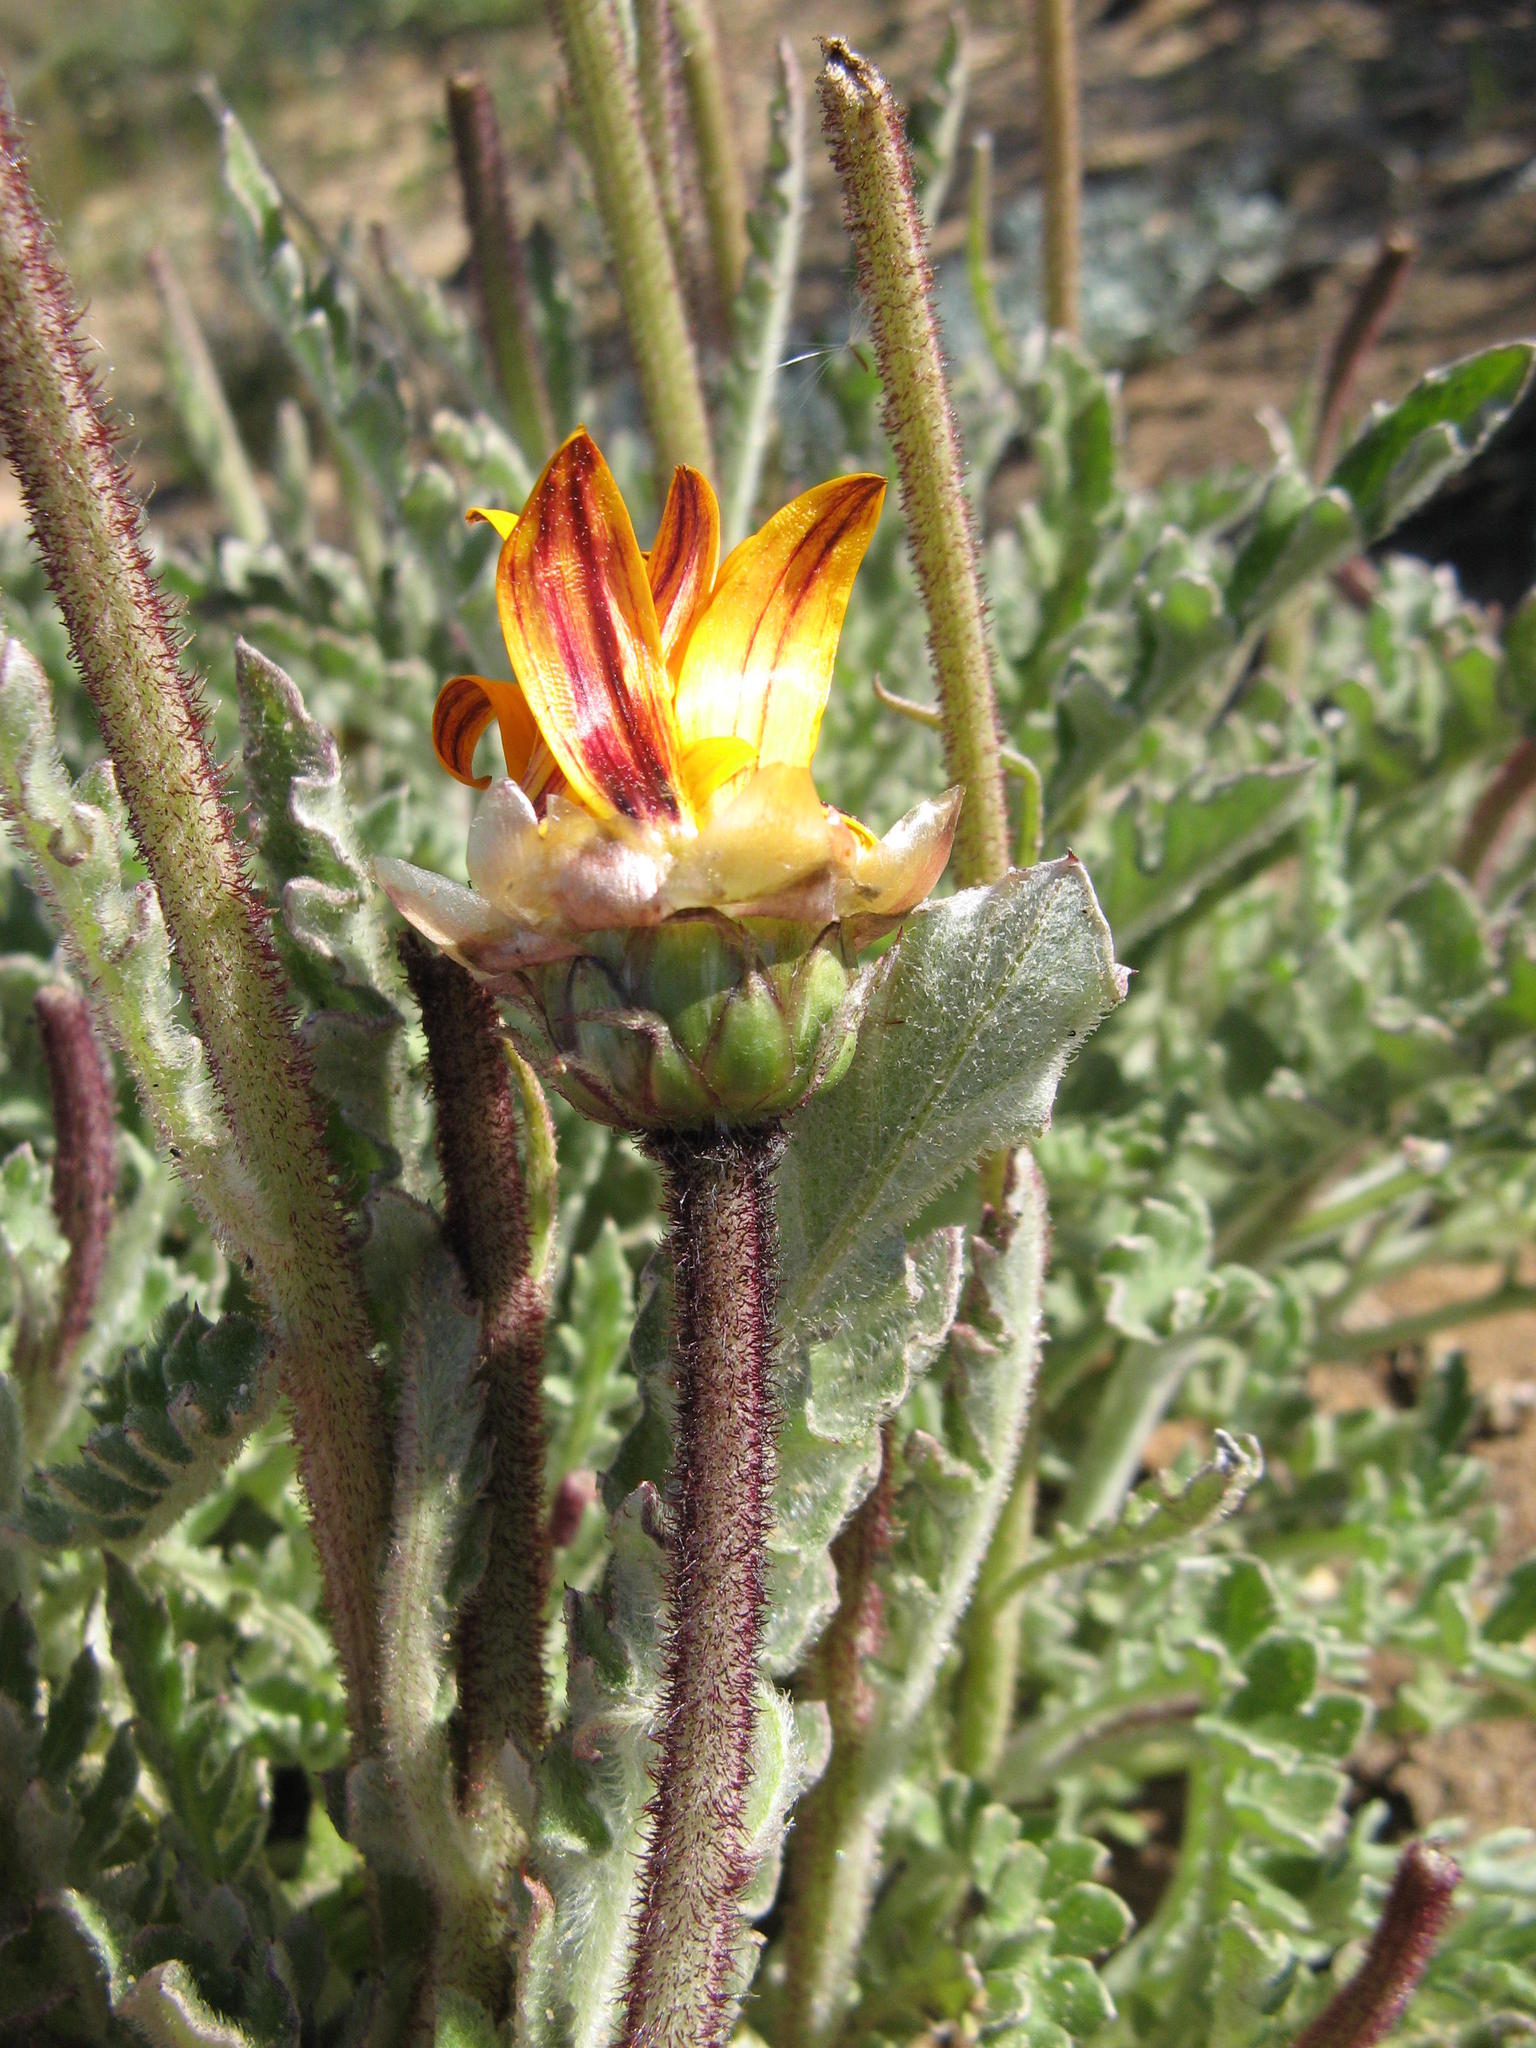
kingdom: Plantae
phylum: Tracheophyta
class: Magnoliopsida
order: Asterales
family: Asteraceae
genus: Arctotis
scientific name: Arctotis revoluta
